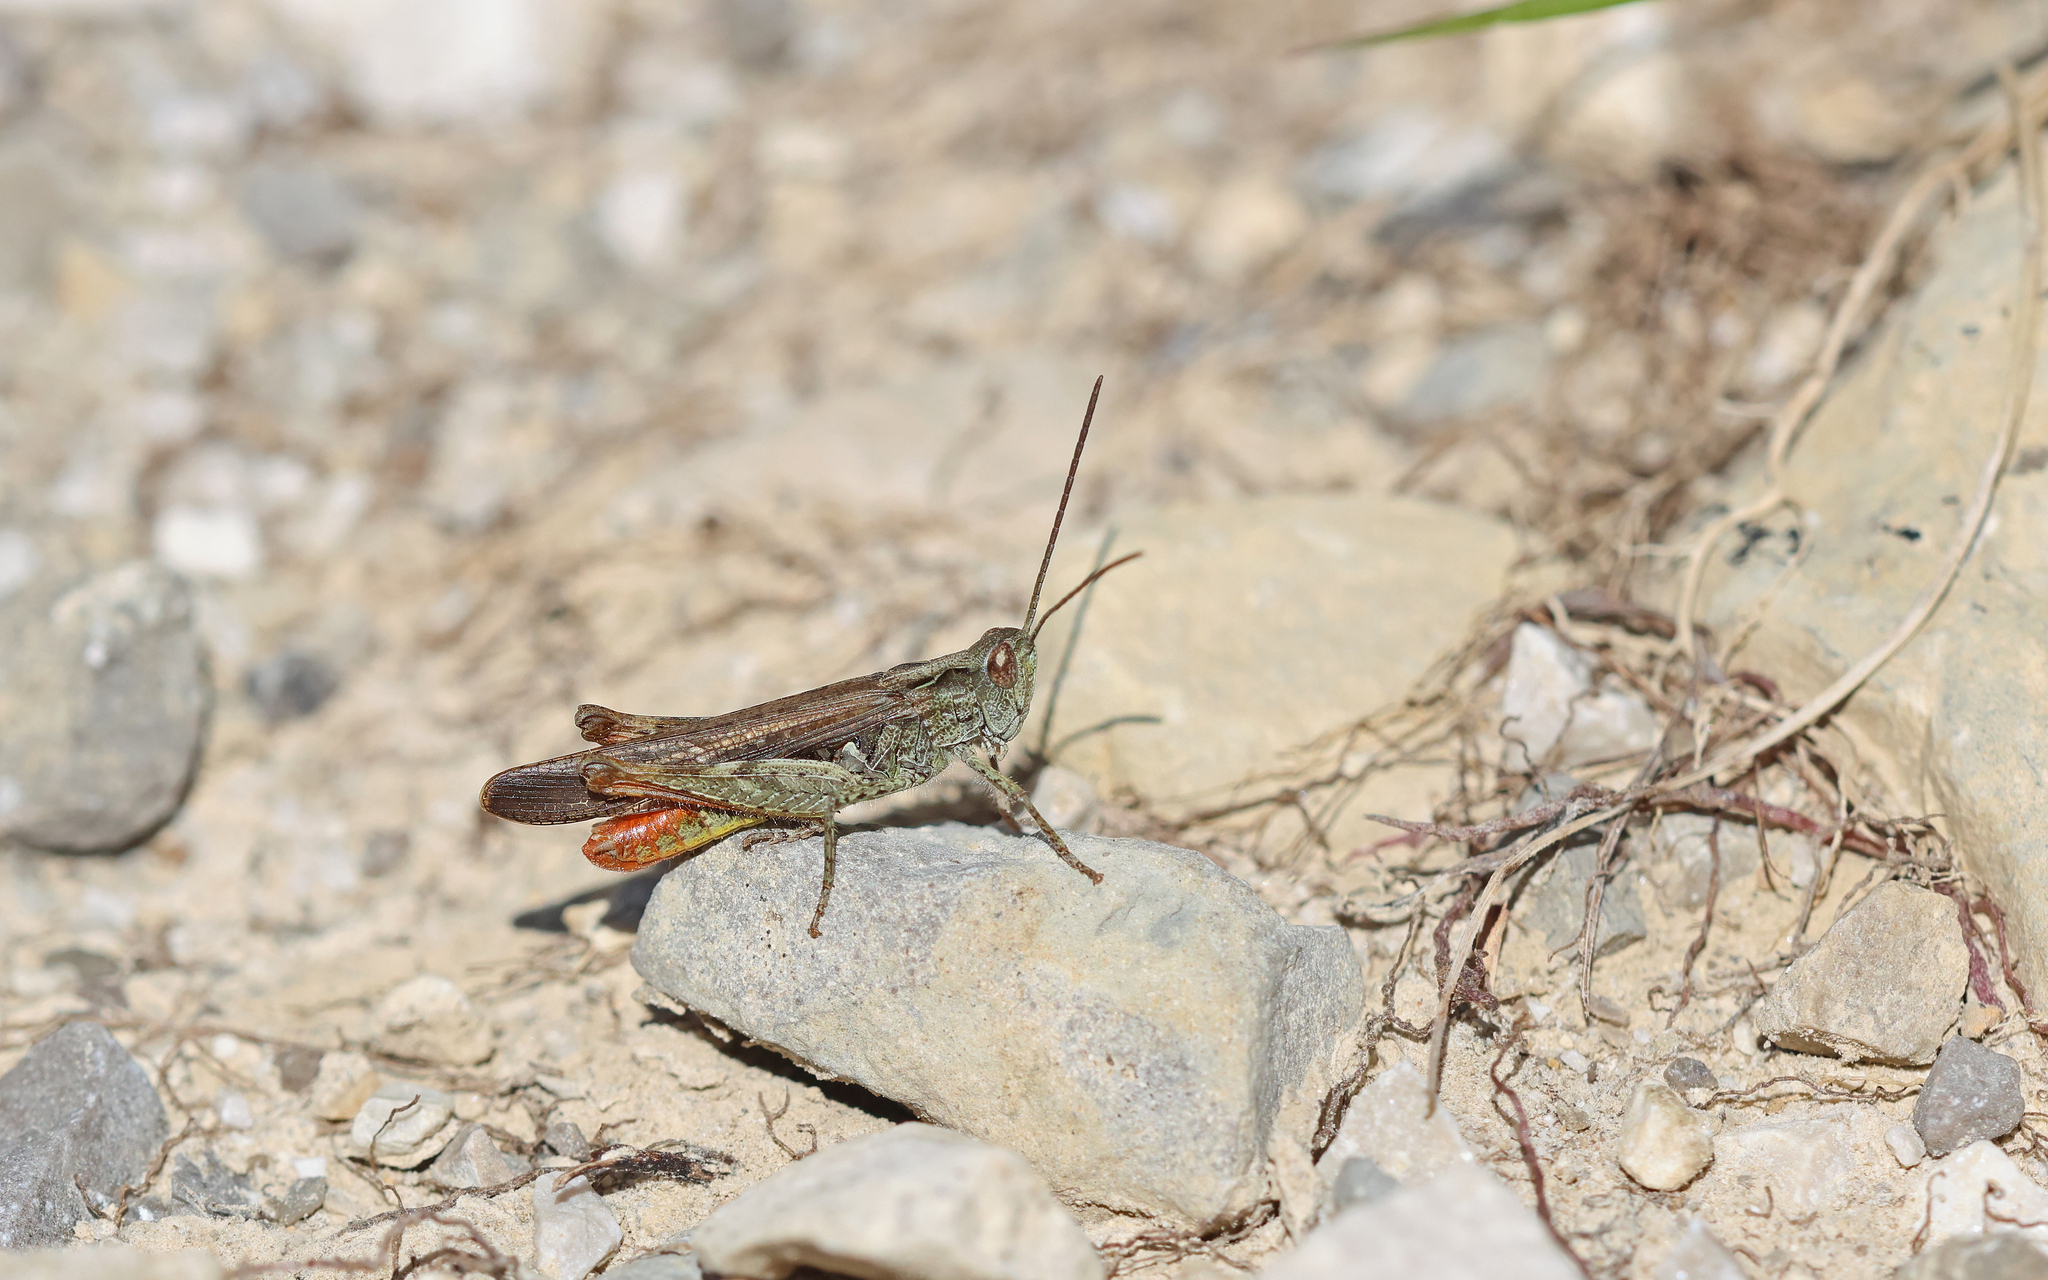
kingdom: Animalia
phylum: Arthropoda
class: Insecta
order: Orthoptera
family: Acrididae
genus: Chorthippus
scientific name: Chorthippus brunneus
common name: Field grasshopper
